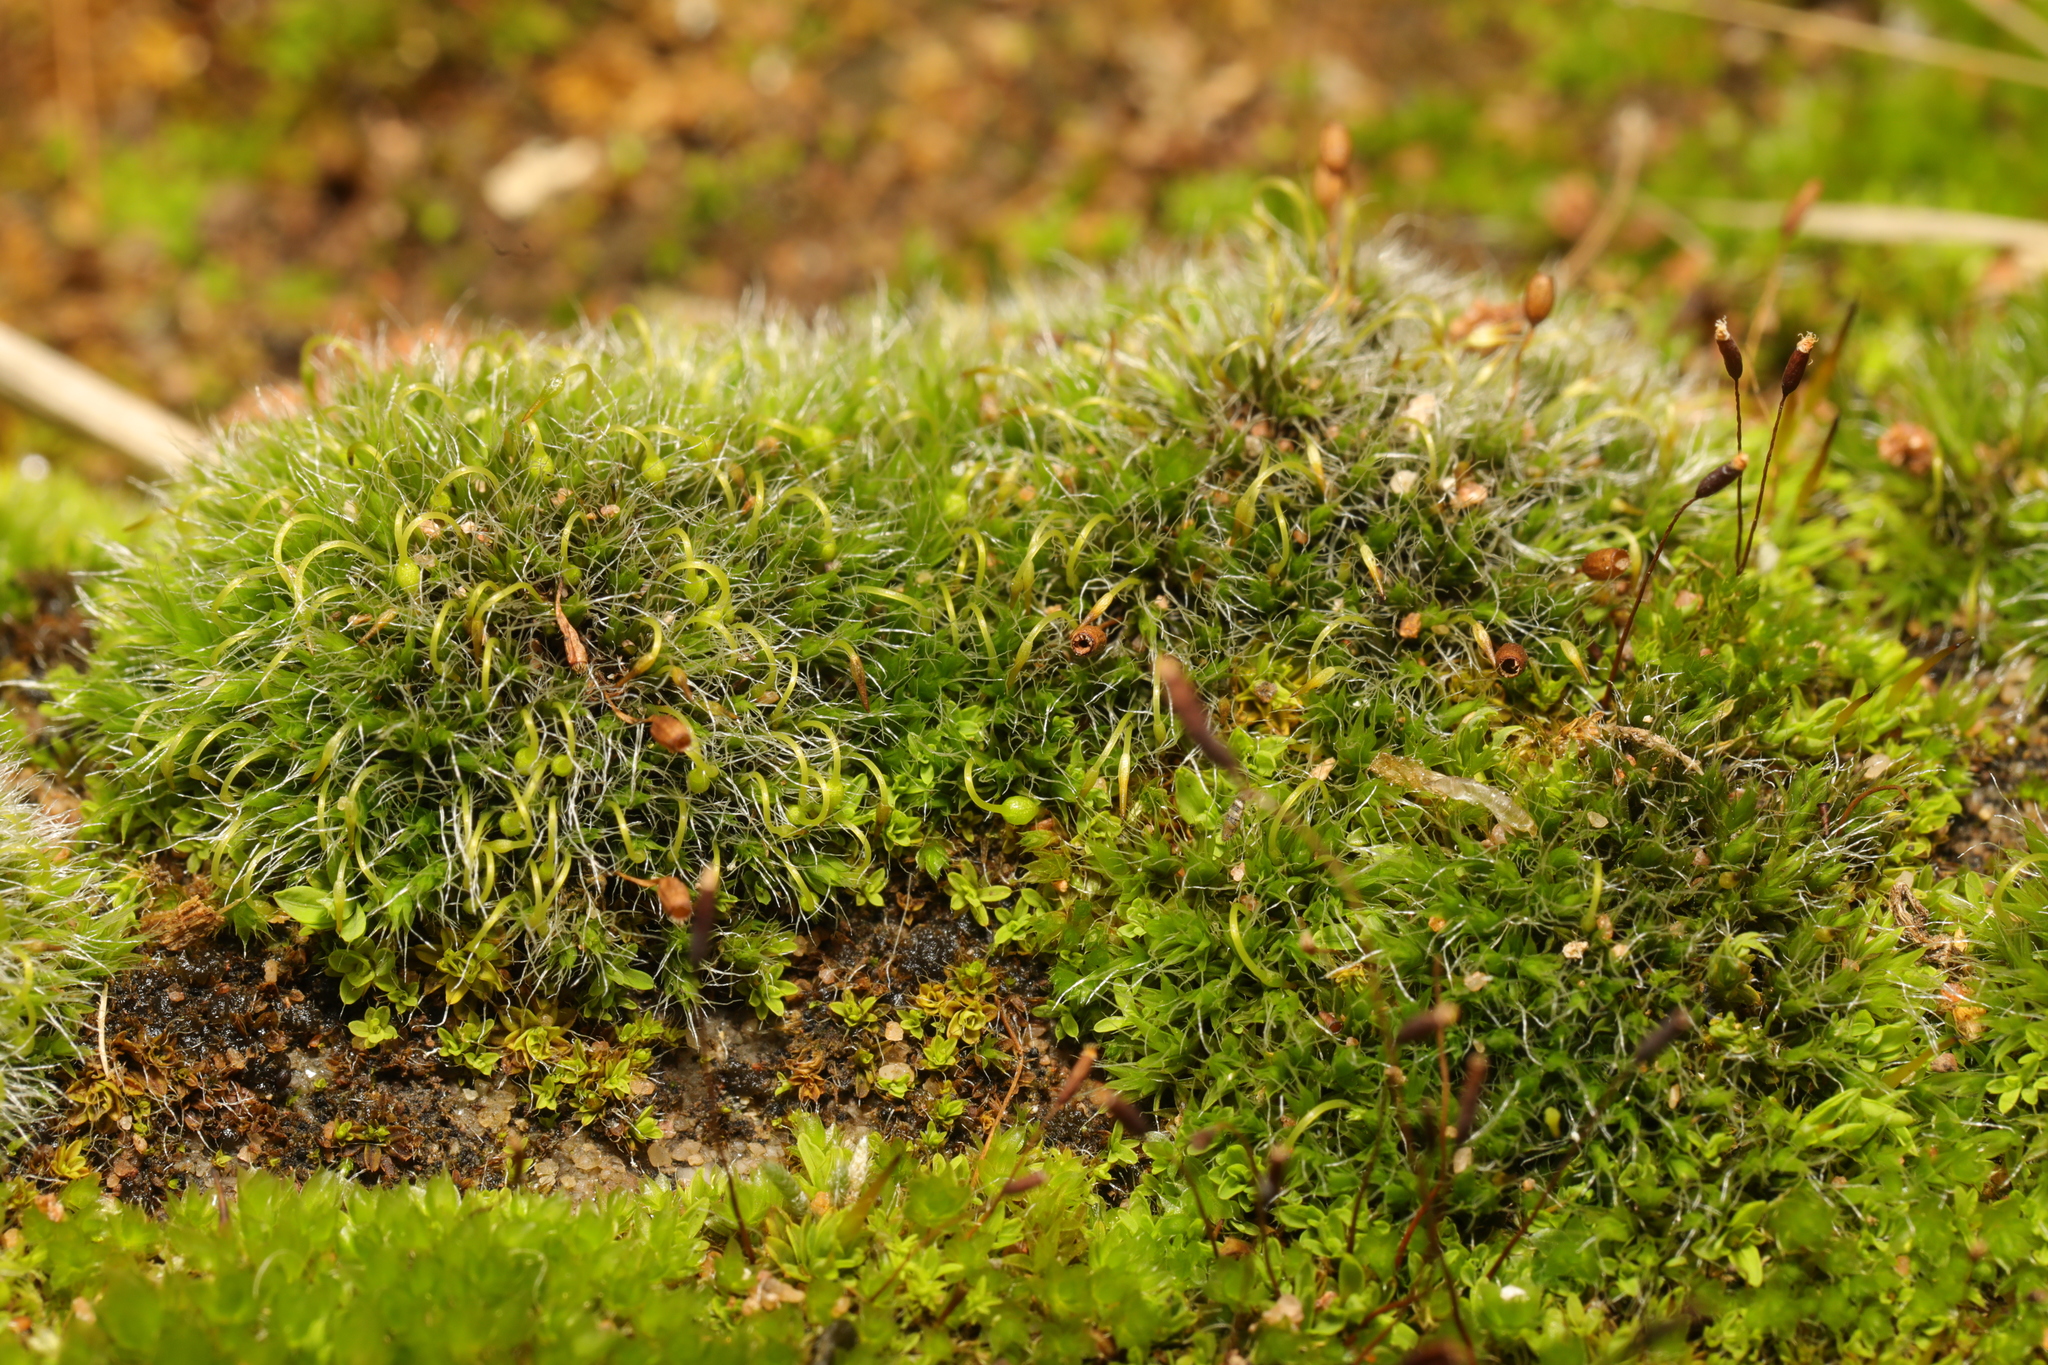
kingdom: Plantae
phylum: Bryophyta
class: Bryopsida
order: Grimmiales
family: Grimmiaceae
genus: Grimmia
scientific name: Grimmia pulvinata
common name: Grey-cushioned grimmia
